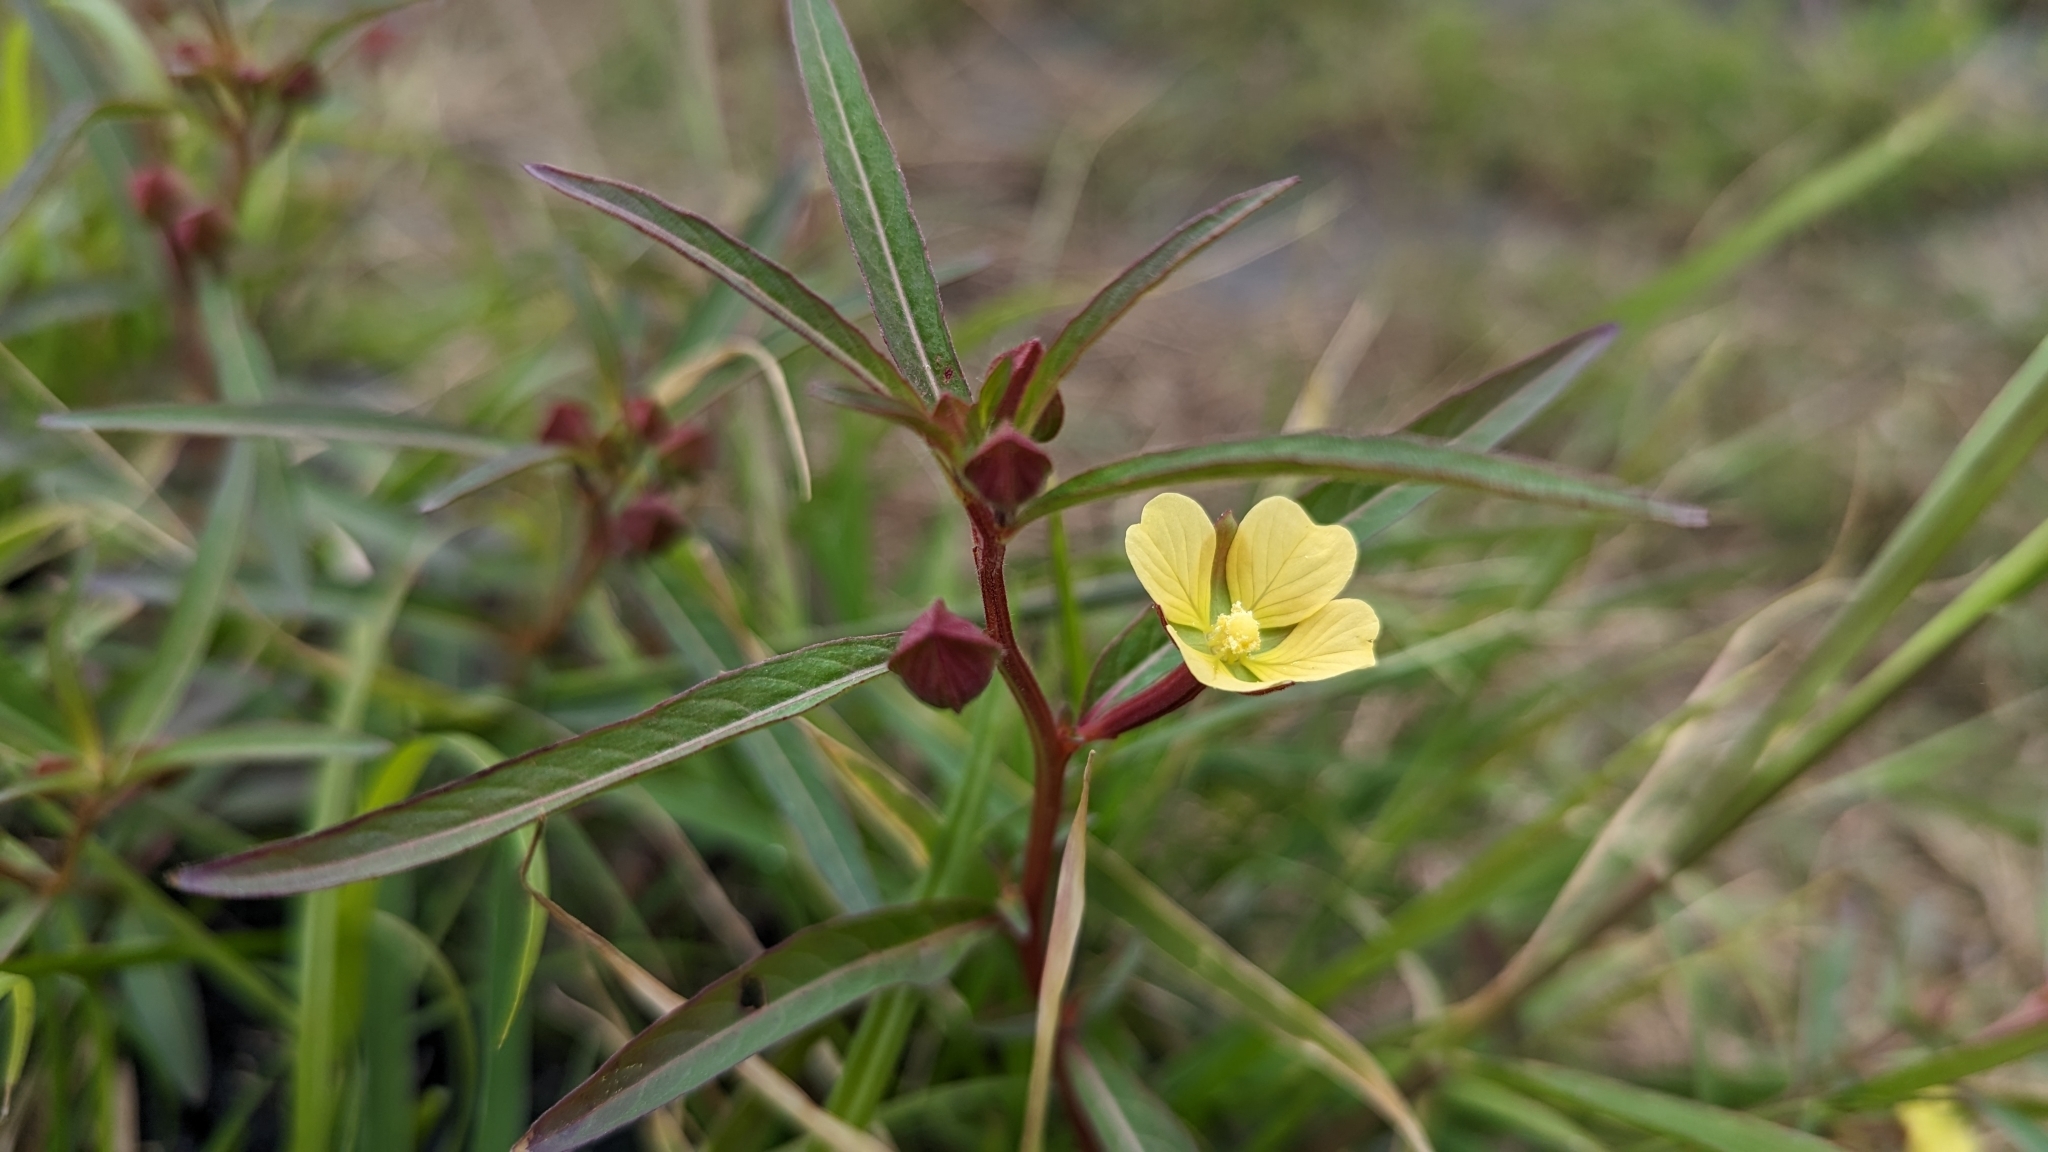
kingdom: Plantae
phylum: Tracheophyta
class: Magnoliopsida
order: Myrtales
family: Onagraceae
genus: Ludwigia
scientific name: Ludwigia octovalvis
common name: Water-primrose
